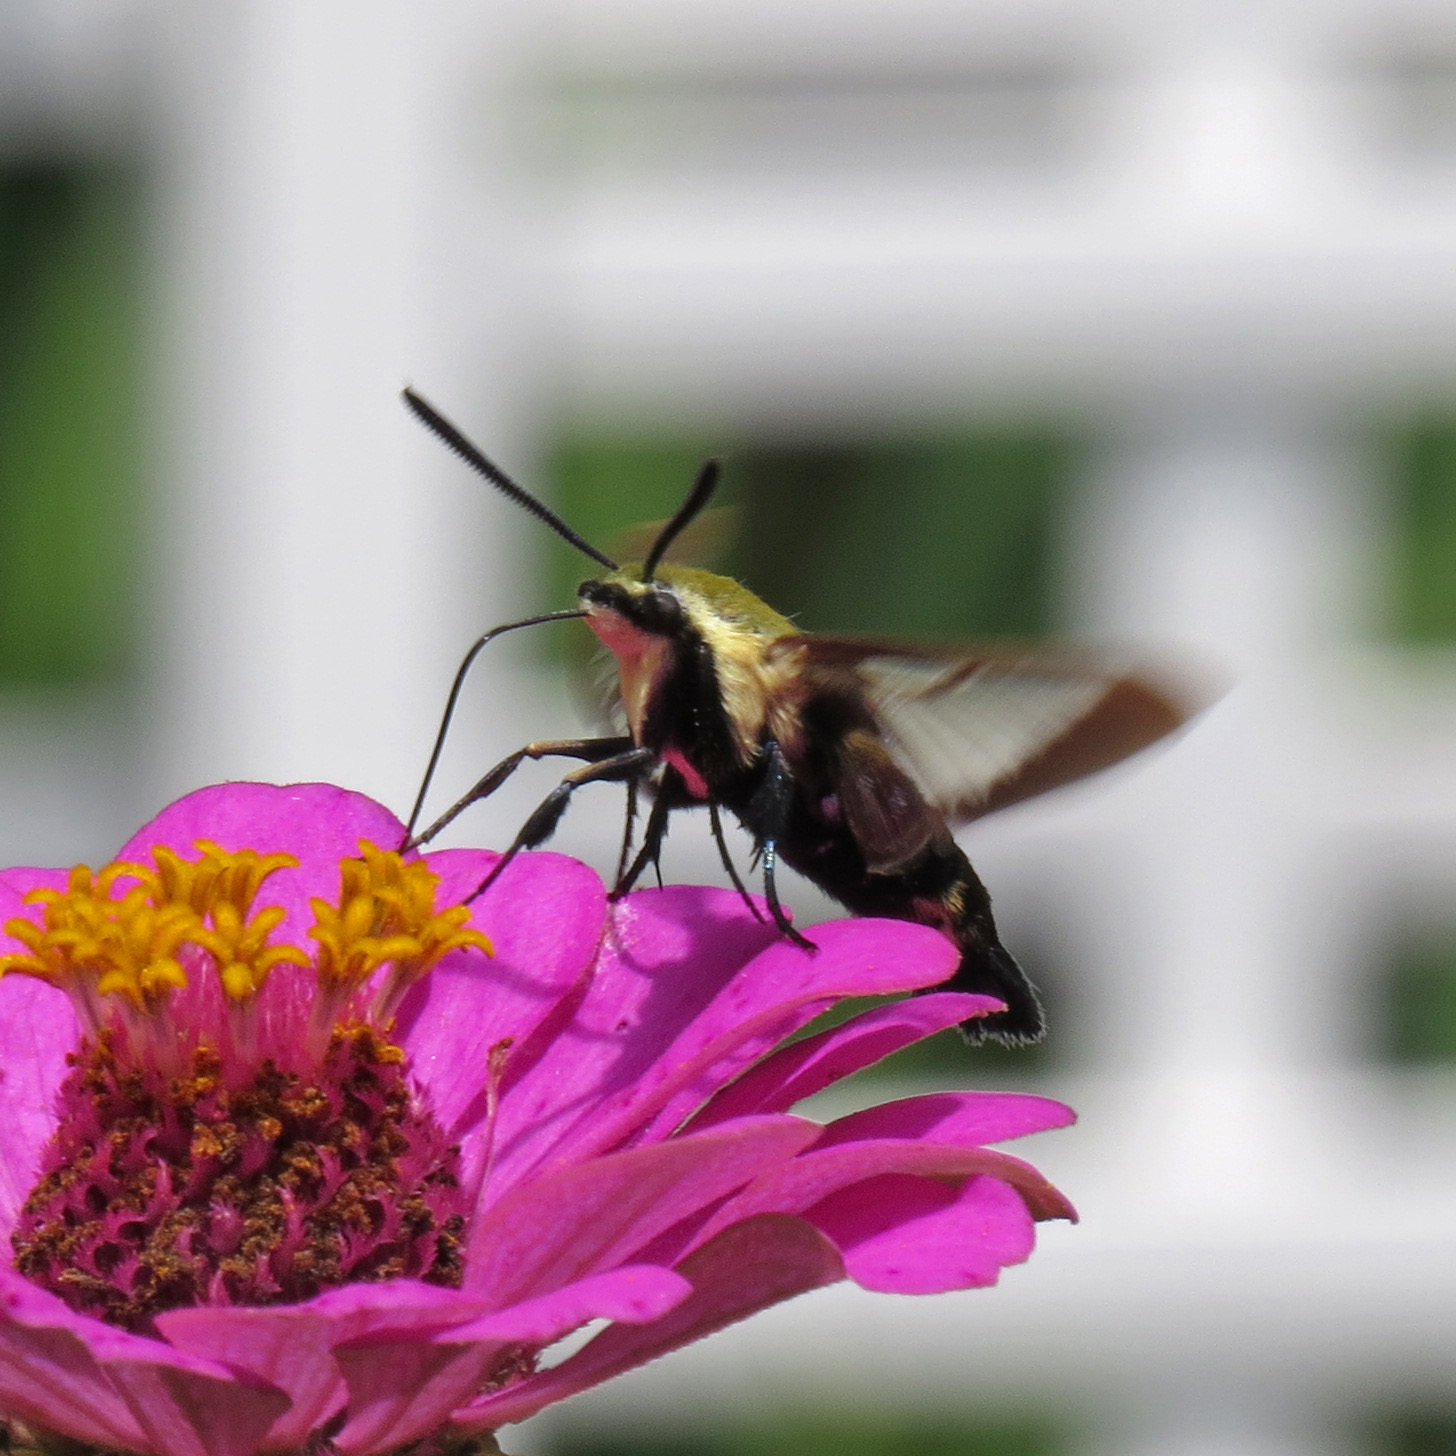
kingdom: Animalia
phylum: Arthropoda
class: Insecta
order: Lepidoptera
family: Sphingidae
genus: Hemaris
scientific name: Hemaris diffinis
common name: Bumblebee moth
